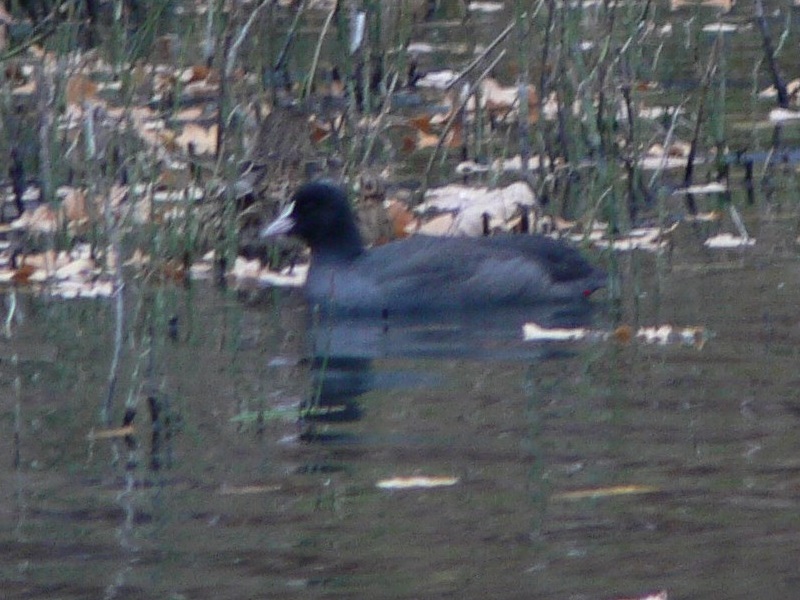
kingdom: Animalia
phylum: Chordata
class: Aves
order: Gruiformes
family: Rallidae
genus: Fulica
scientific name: Fulica atra
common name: Eurasian coot
